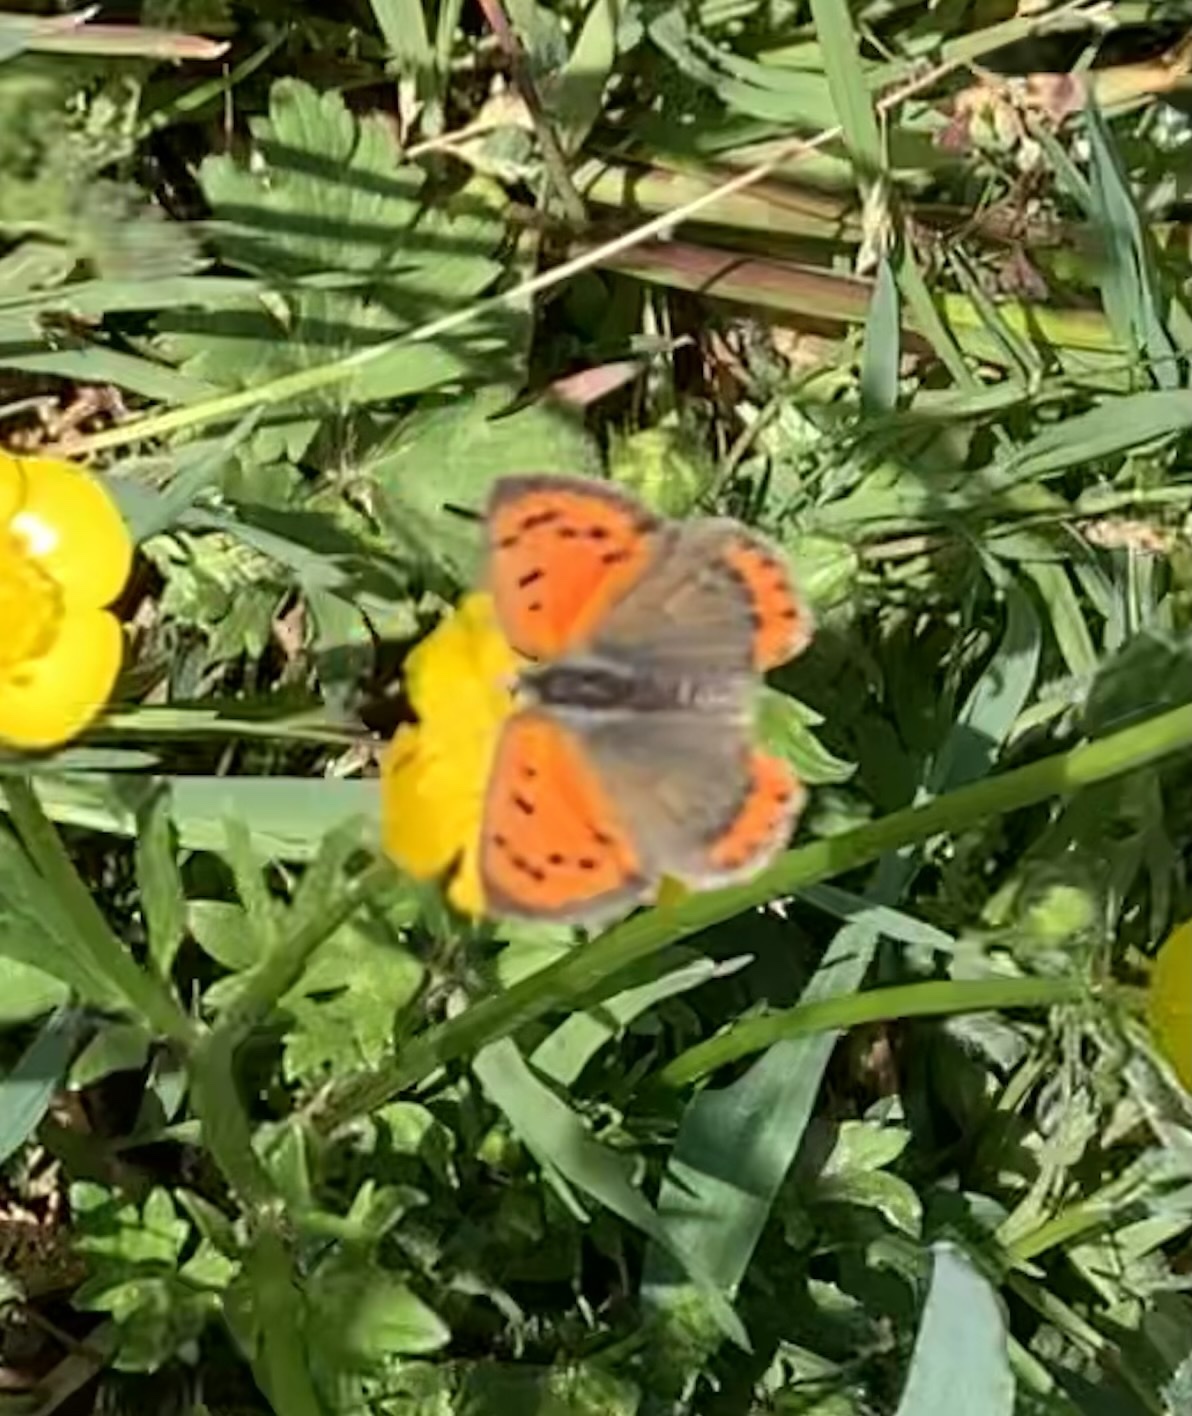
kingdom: Animalia
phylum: Arthropoda
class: Insecta
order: Lepidoptera
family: Lycaenidae
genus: Lycaena
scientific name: Lycaena phlaeas
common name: Small copper
